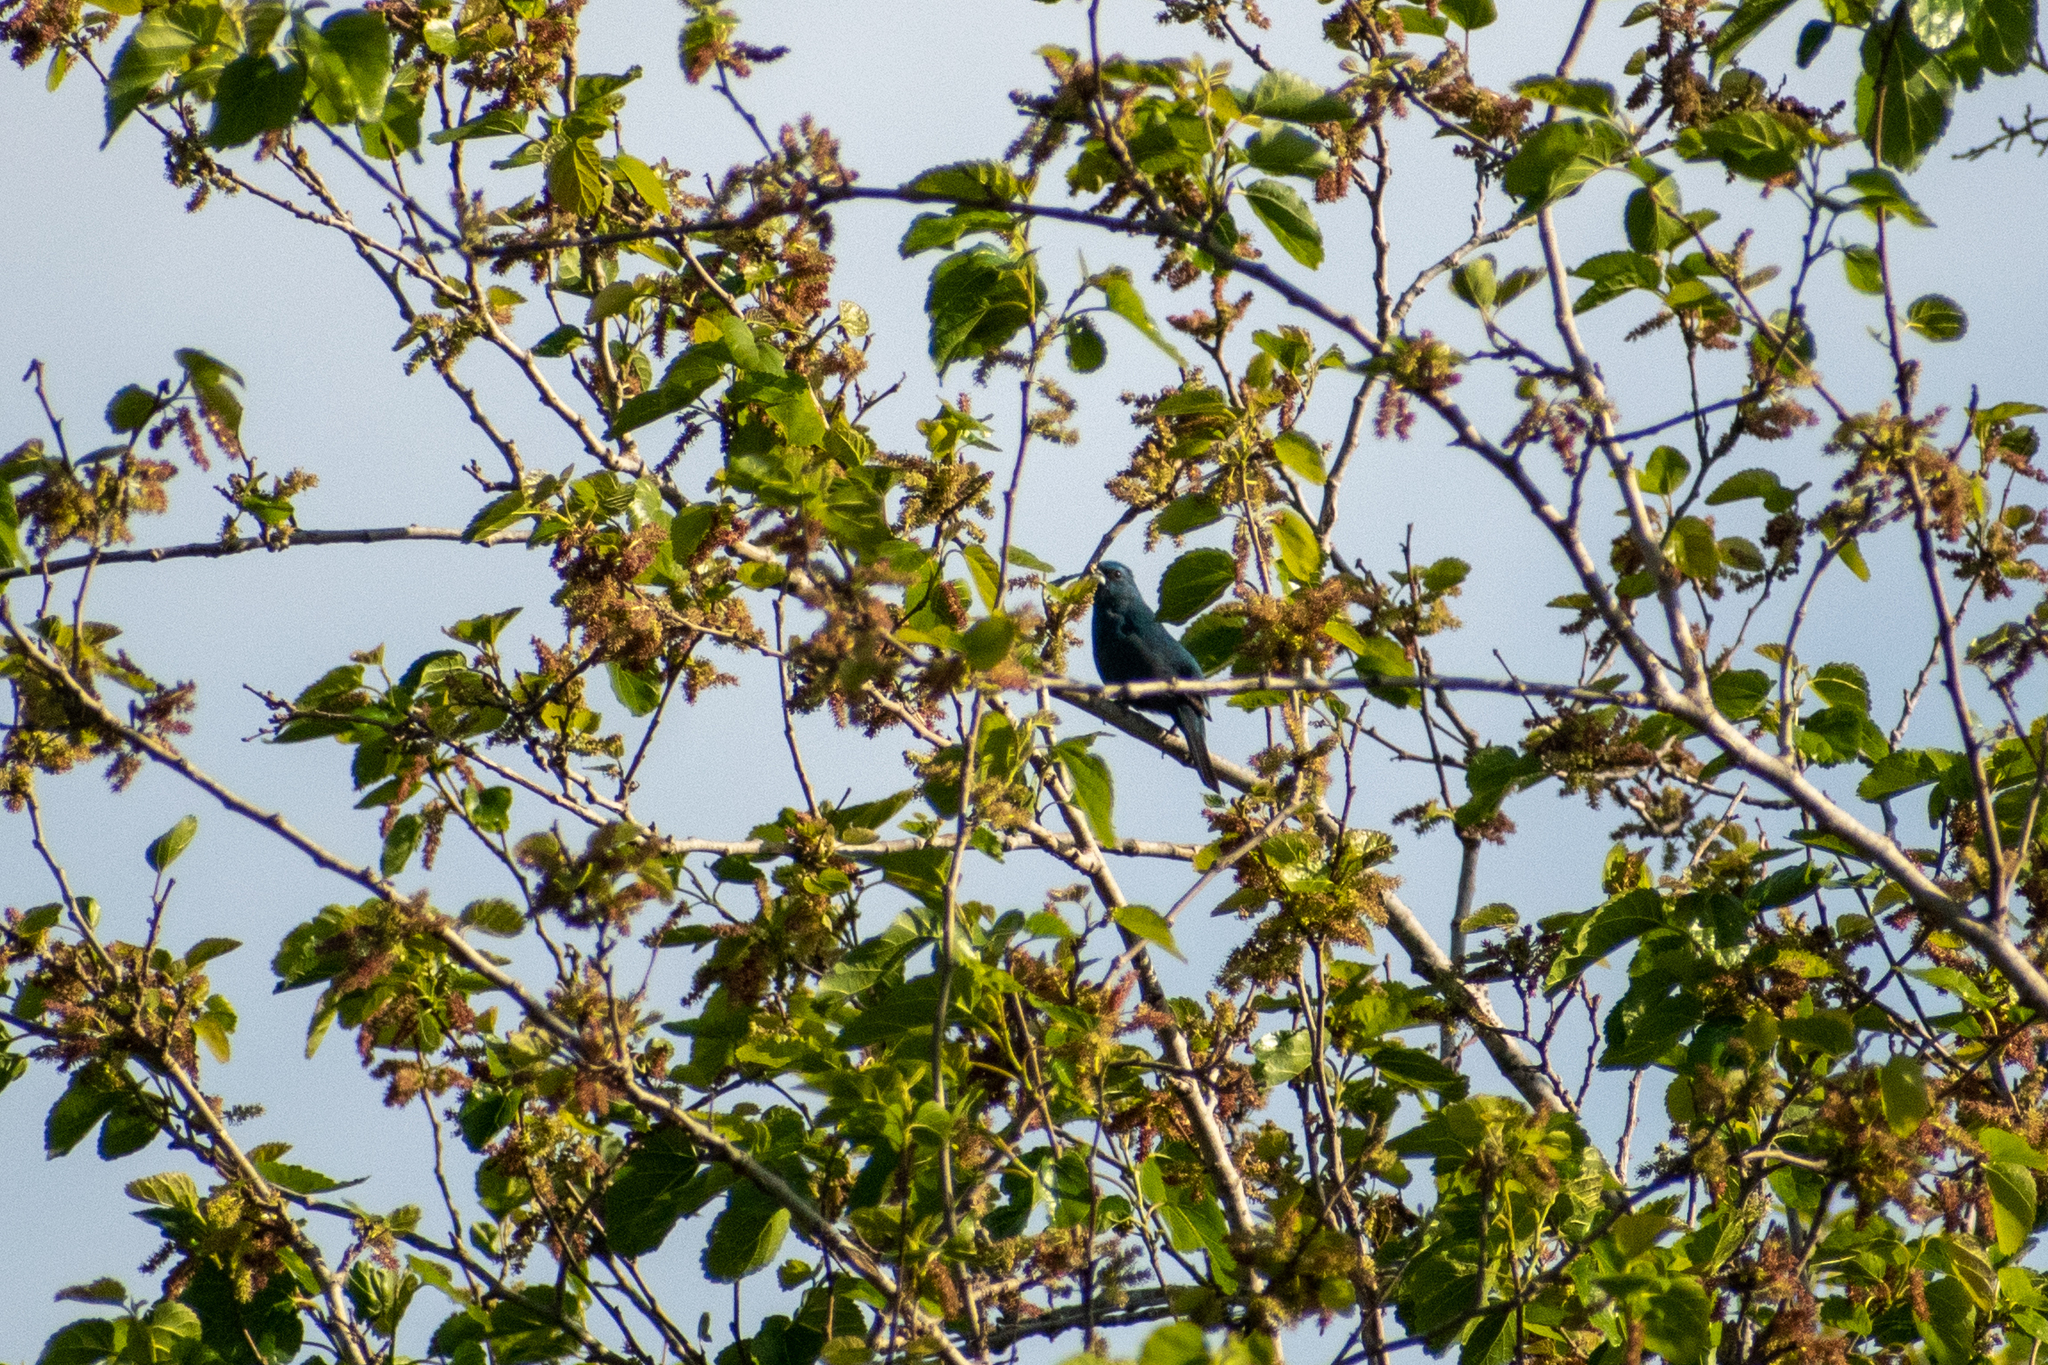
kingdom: Animalia
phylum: Chordata
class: Aves
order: Passeriformes
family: Cardinalidae
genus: Cyanoloxia
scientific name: Cyanoloxia glaucocaerulea
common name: Glaucous-blue grosbeak
